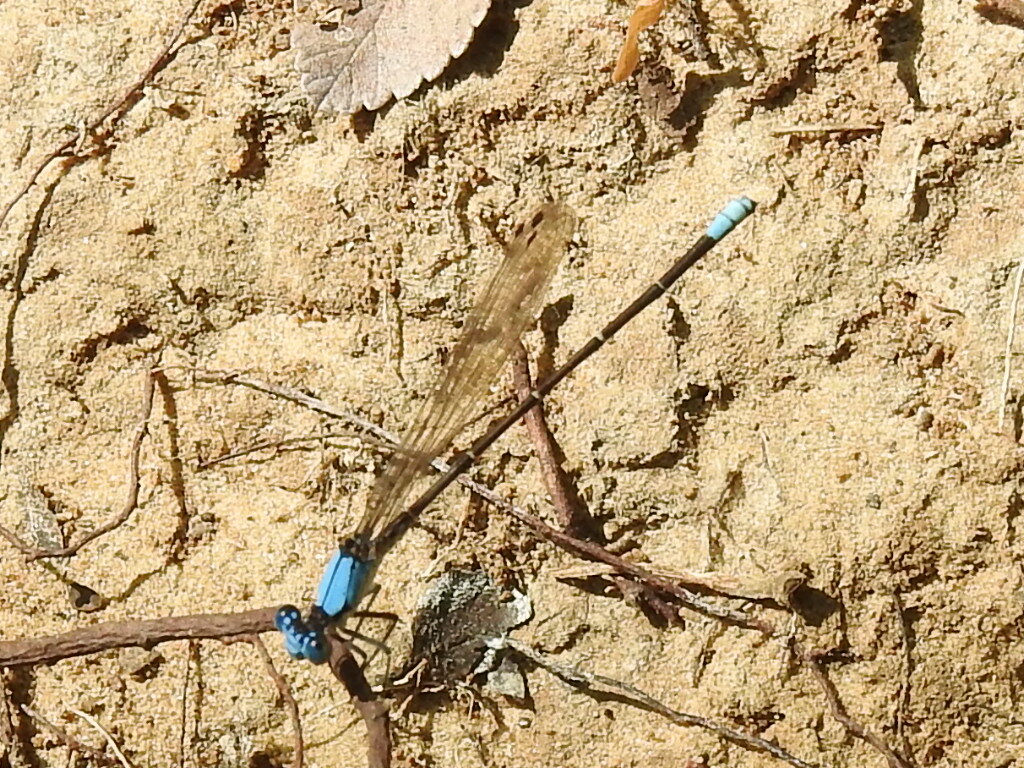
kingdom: Animalia
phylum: Arthropoda
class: Insecta
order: Odonata
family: Coenagrionidae
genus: Argia
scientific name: Argia apicalis
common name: Blue-fronted dancer
